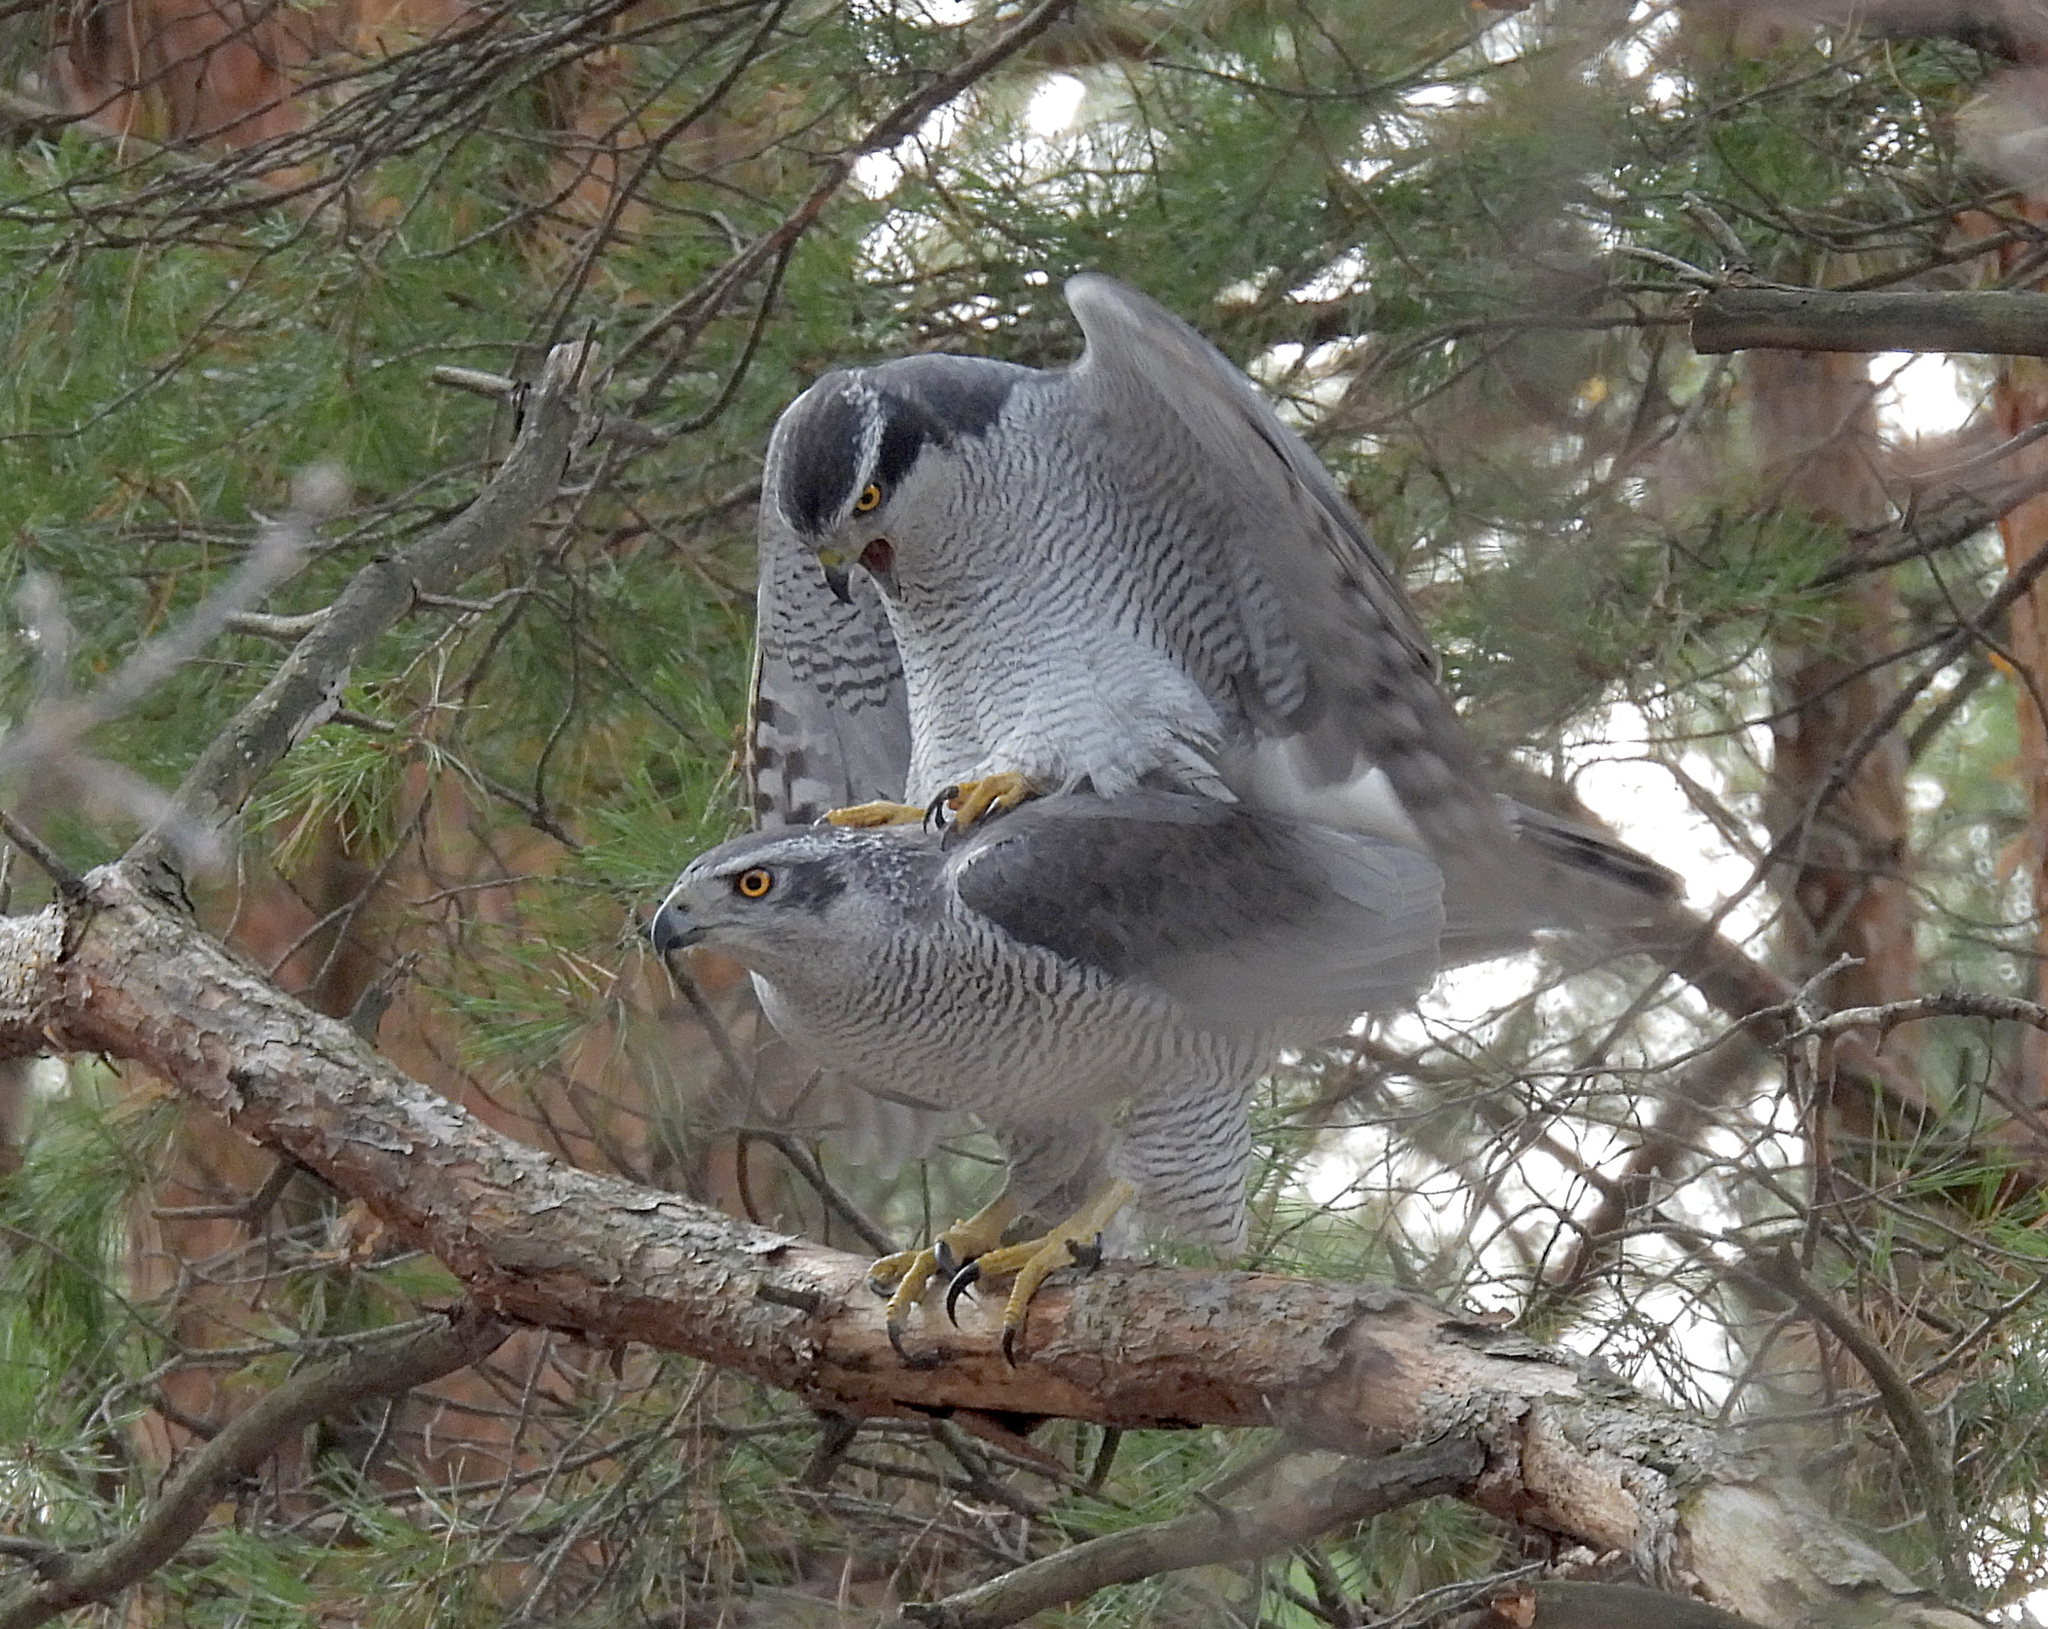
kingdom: Animalia
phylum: Chordata
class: Aves
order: Accipitriformes
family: Accipitridae
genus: Accipiter
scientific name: Accipiter gentilis
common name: Northern goshawk
